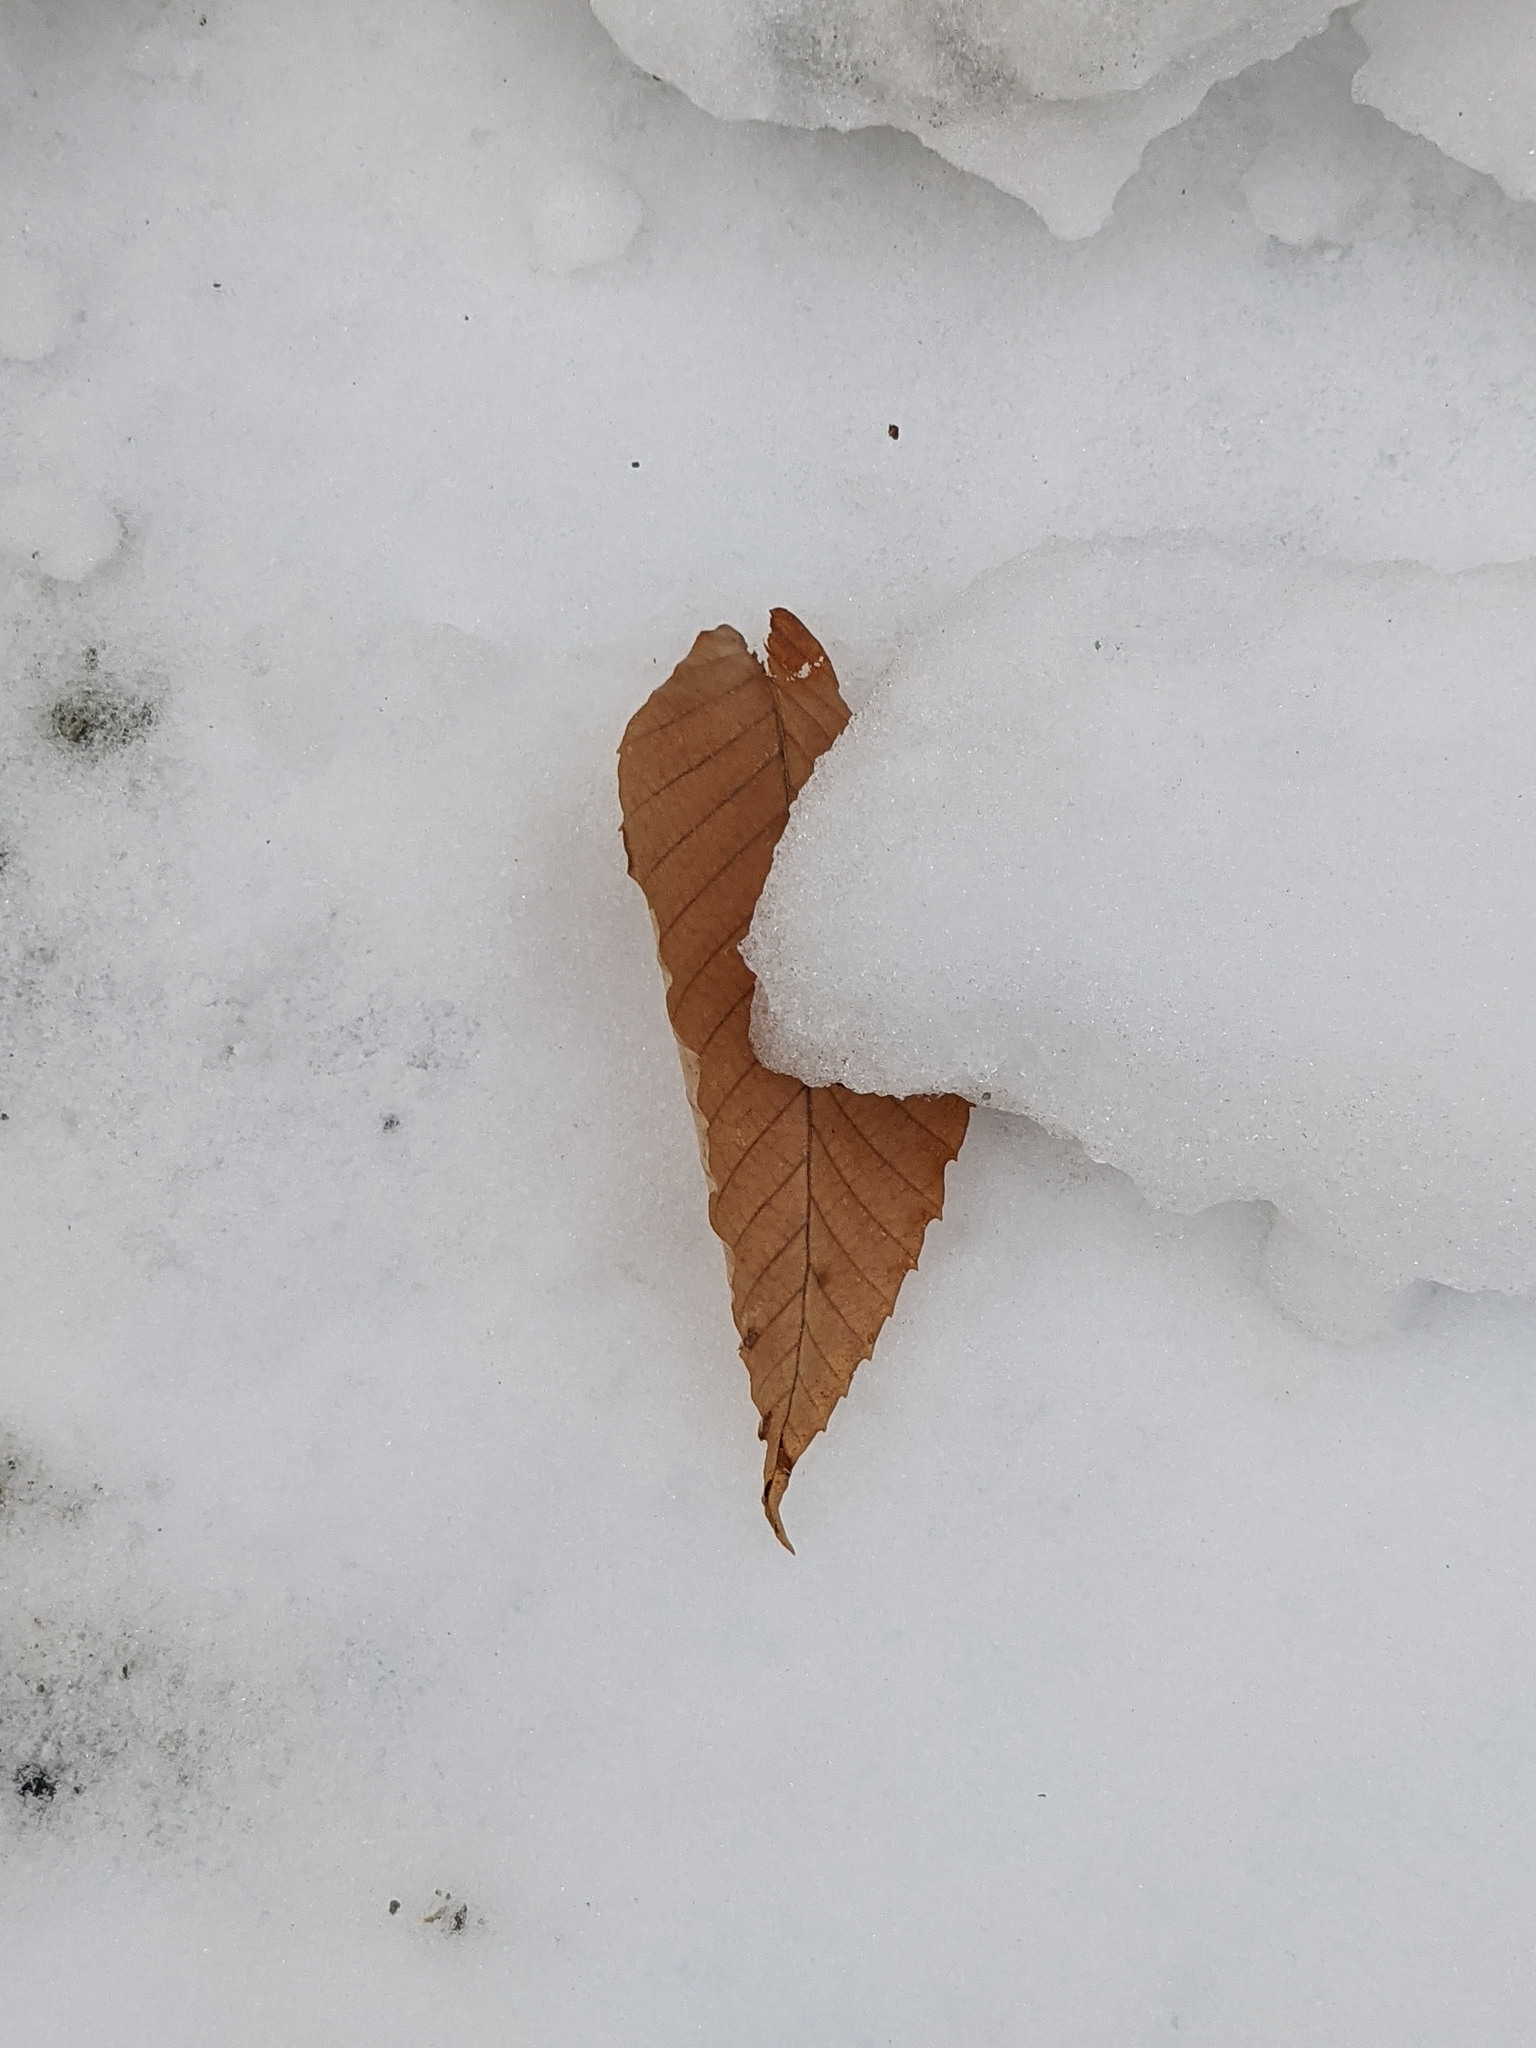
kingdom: Plantae
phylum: Tracheophyta
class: Magnoliopsida
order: Fagales
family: Fagaceae
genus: Fagus
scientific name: Fagus grandifolia
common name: American beech
